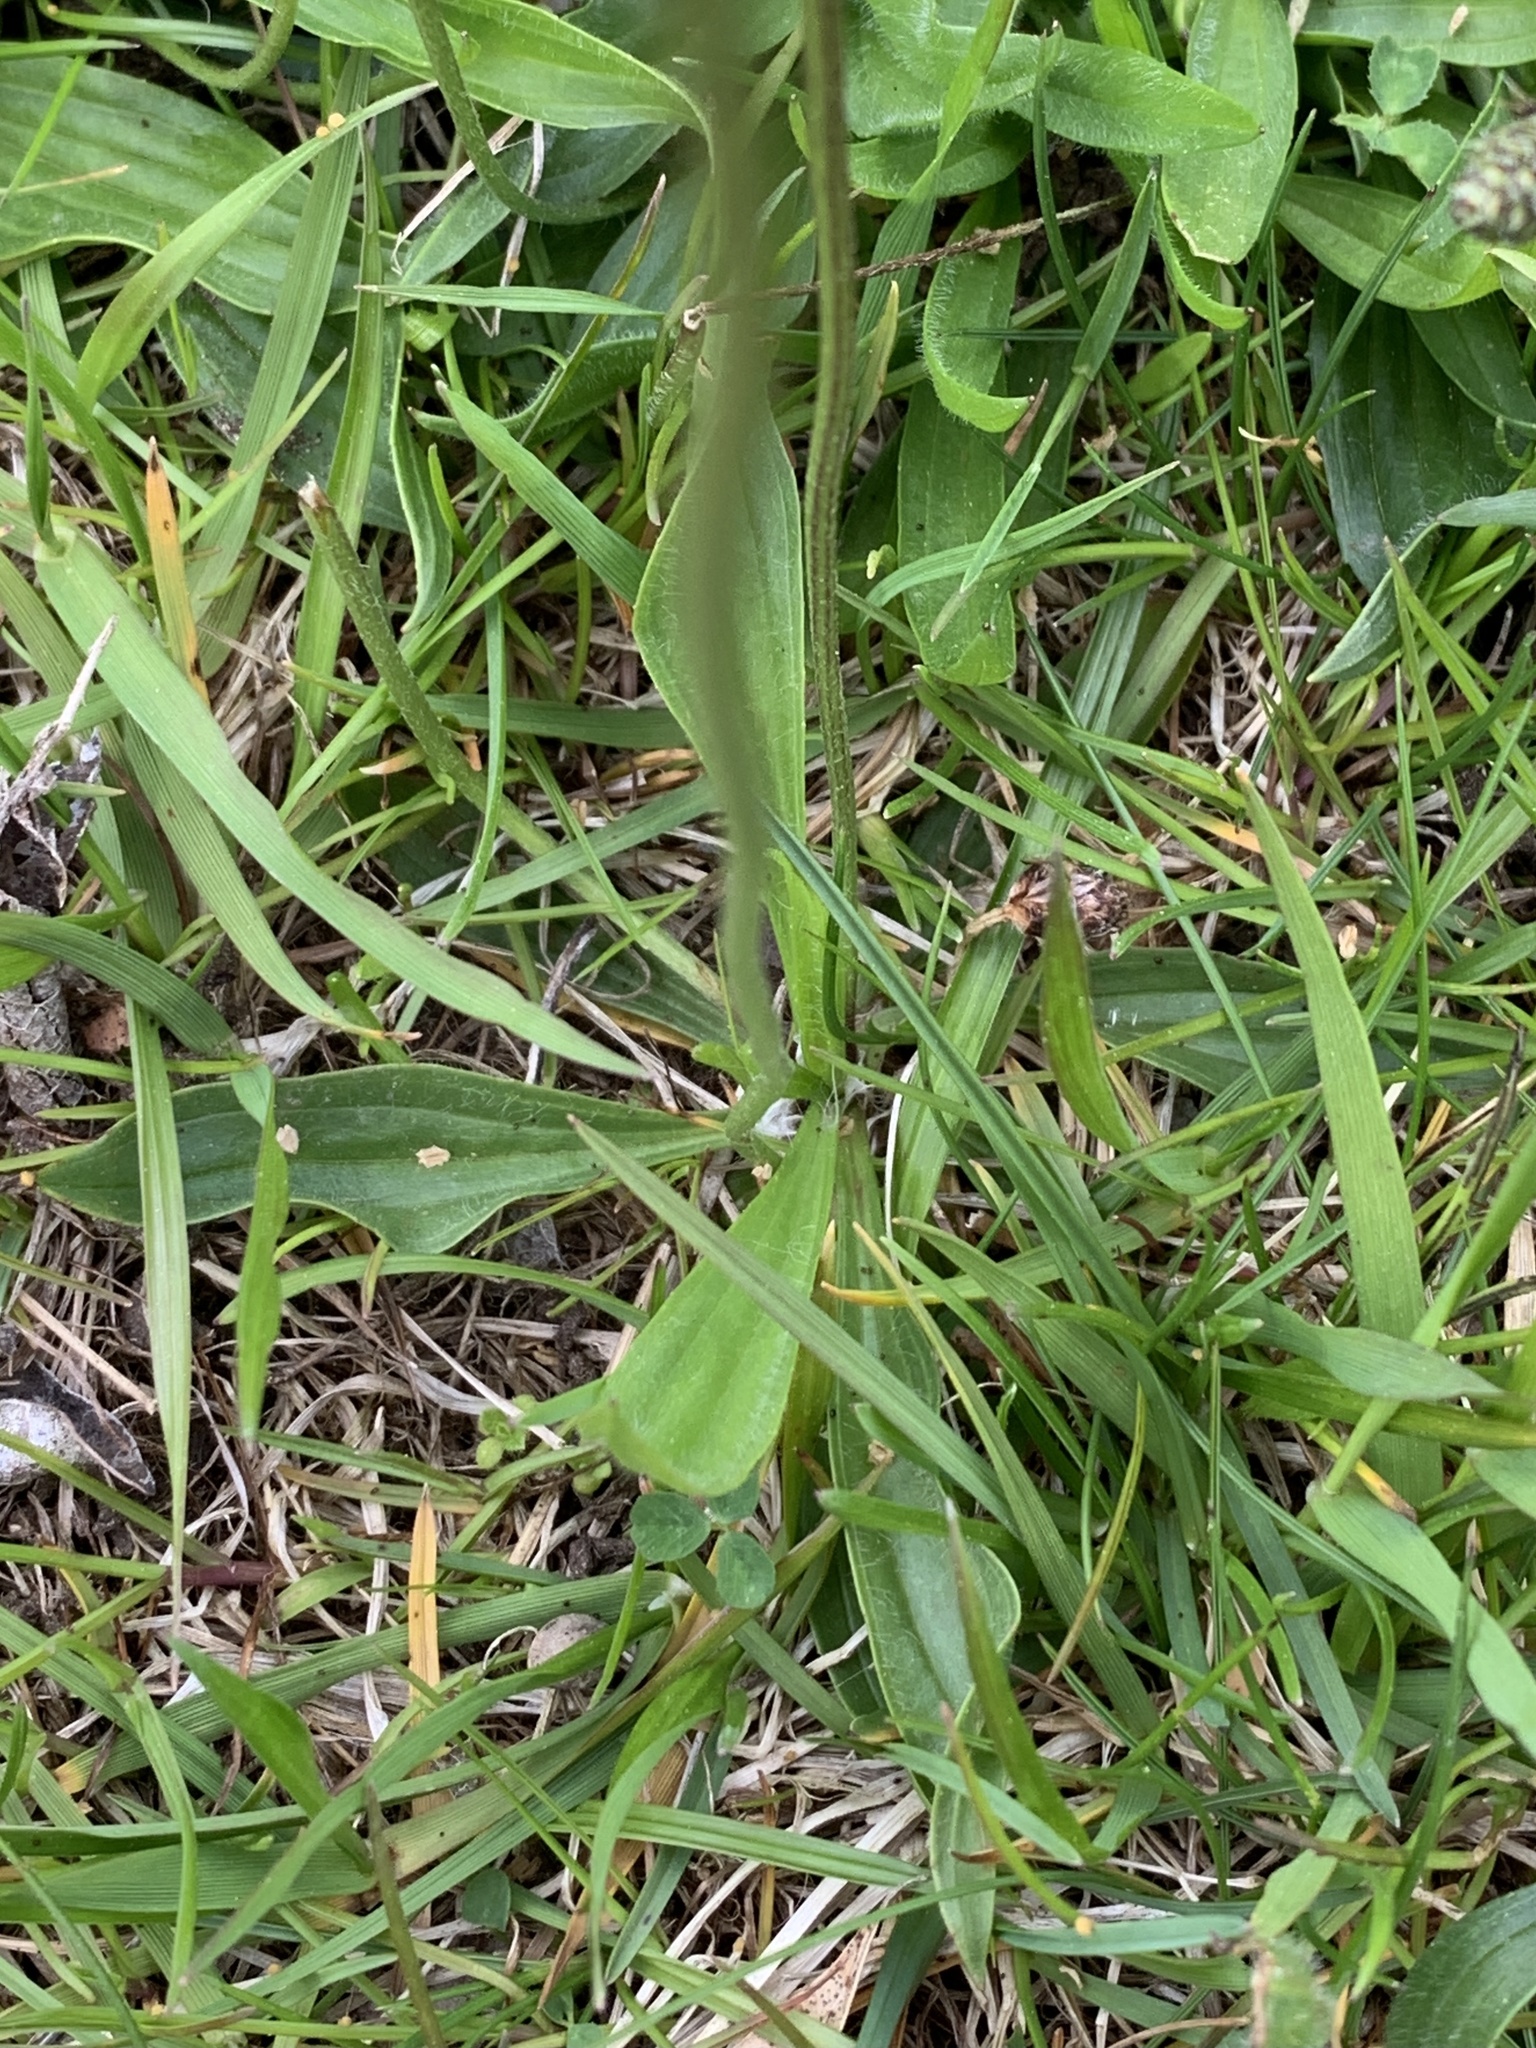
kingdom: Plantae
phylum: Tracheophyta
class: Magnoliopsida
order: Lamiales
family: Plantaginaceae
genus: Plantago
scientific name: Plantago lanceolata
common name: Ribwort plantain
